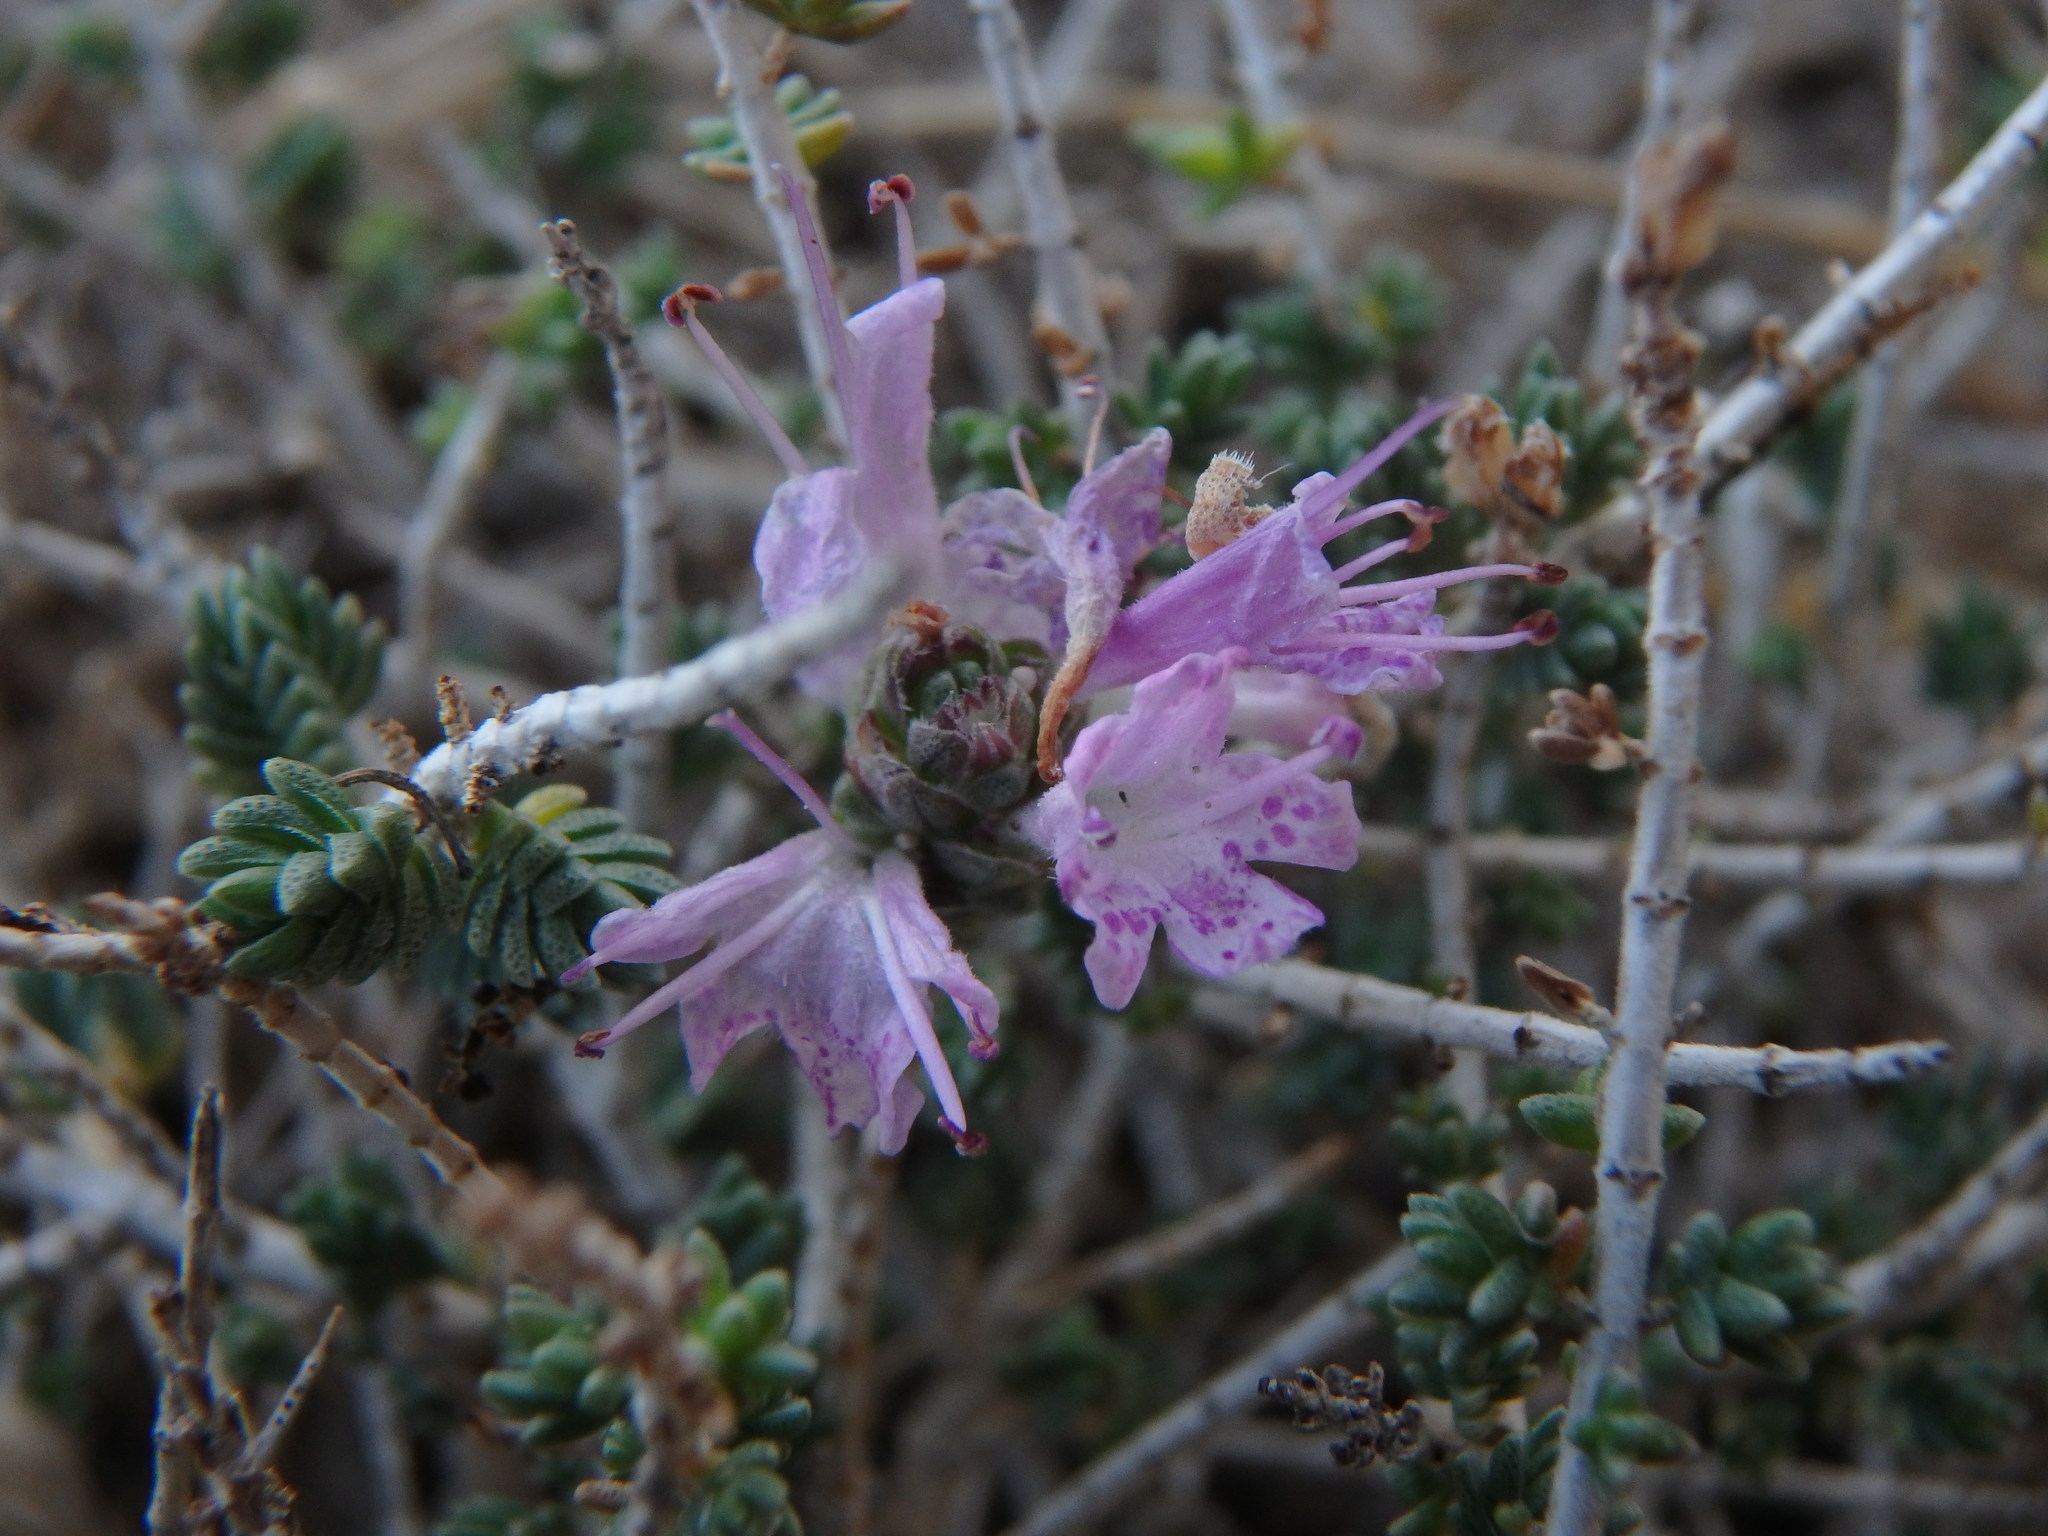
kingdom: Plantae
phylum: Tracheophyta
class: Magnoliopsida
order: Lamiales
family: Lamiaceae
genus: Thymbra
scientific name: Thymbra capitata
